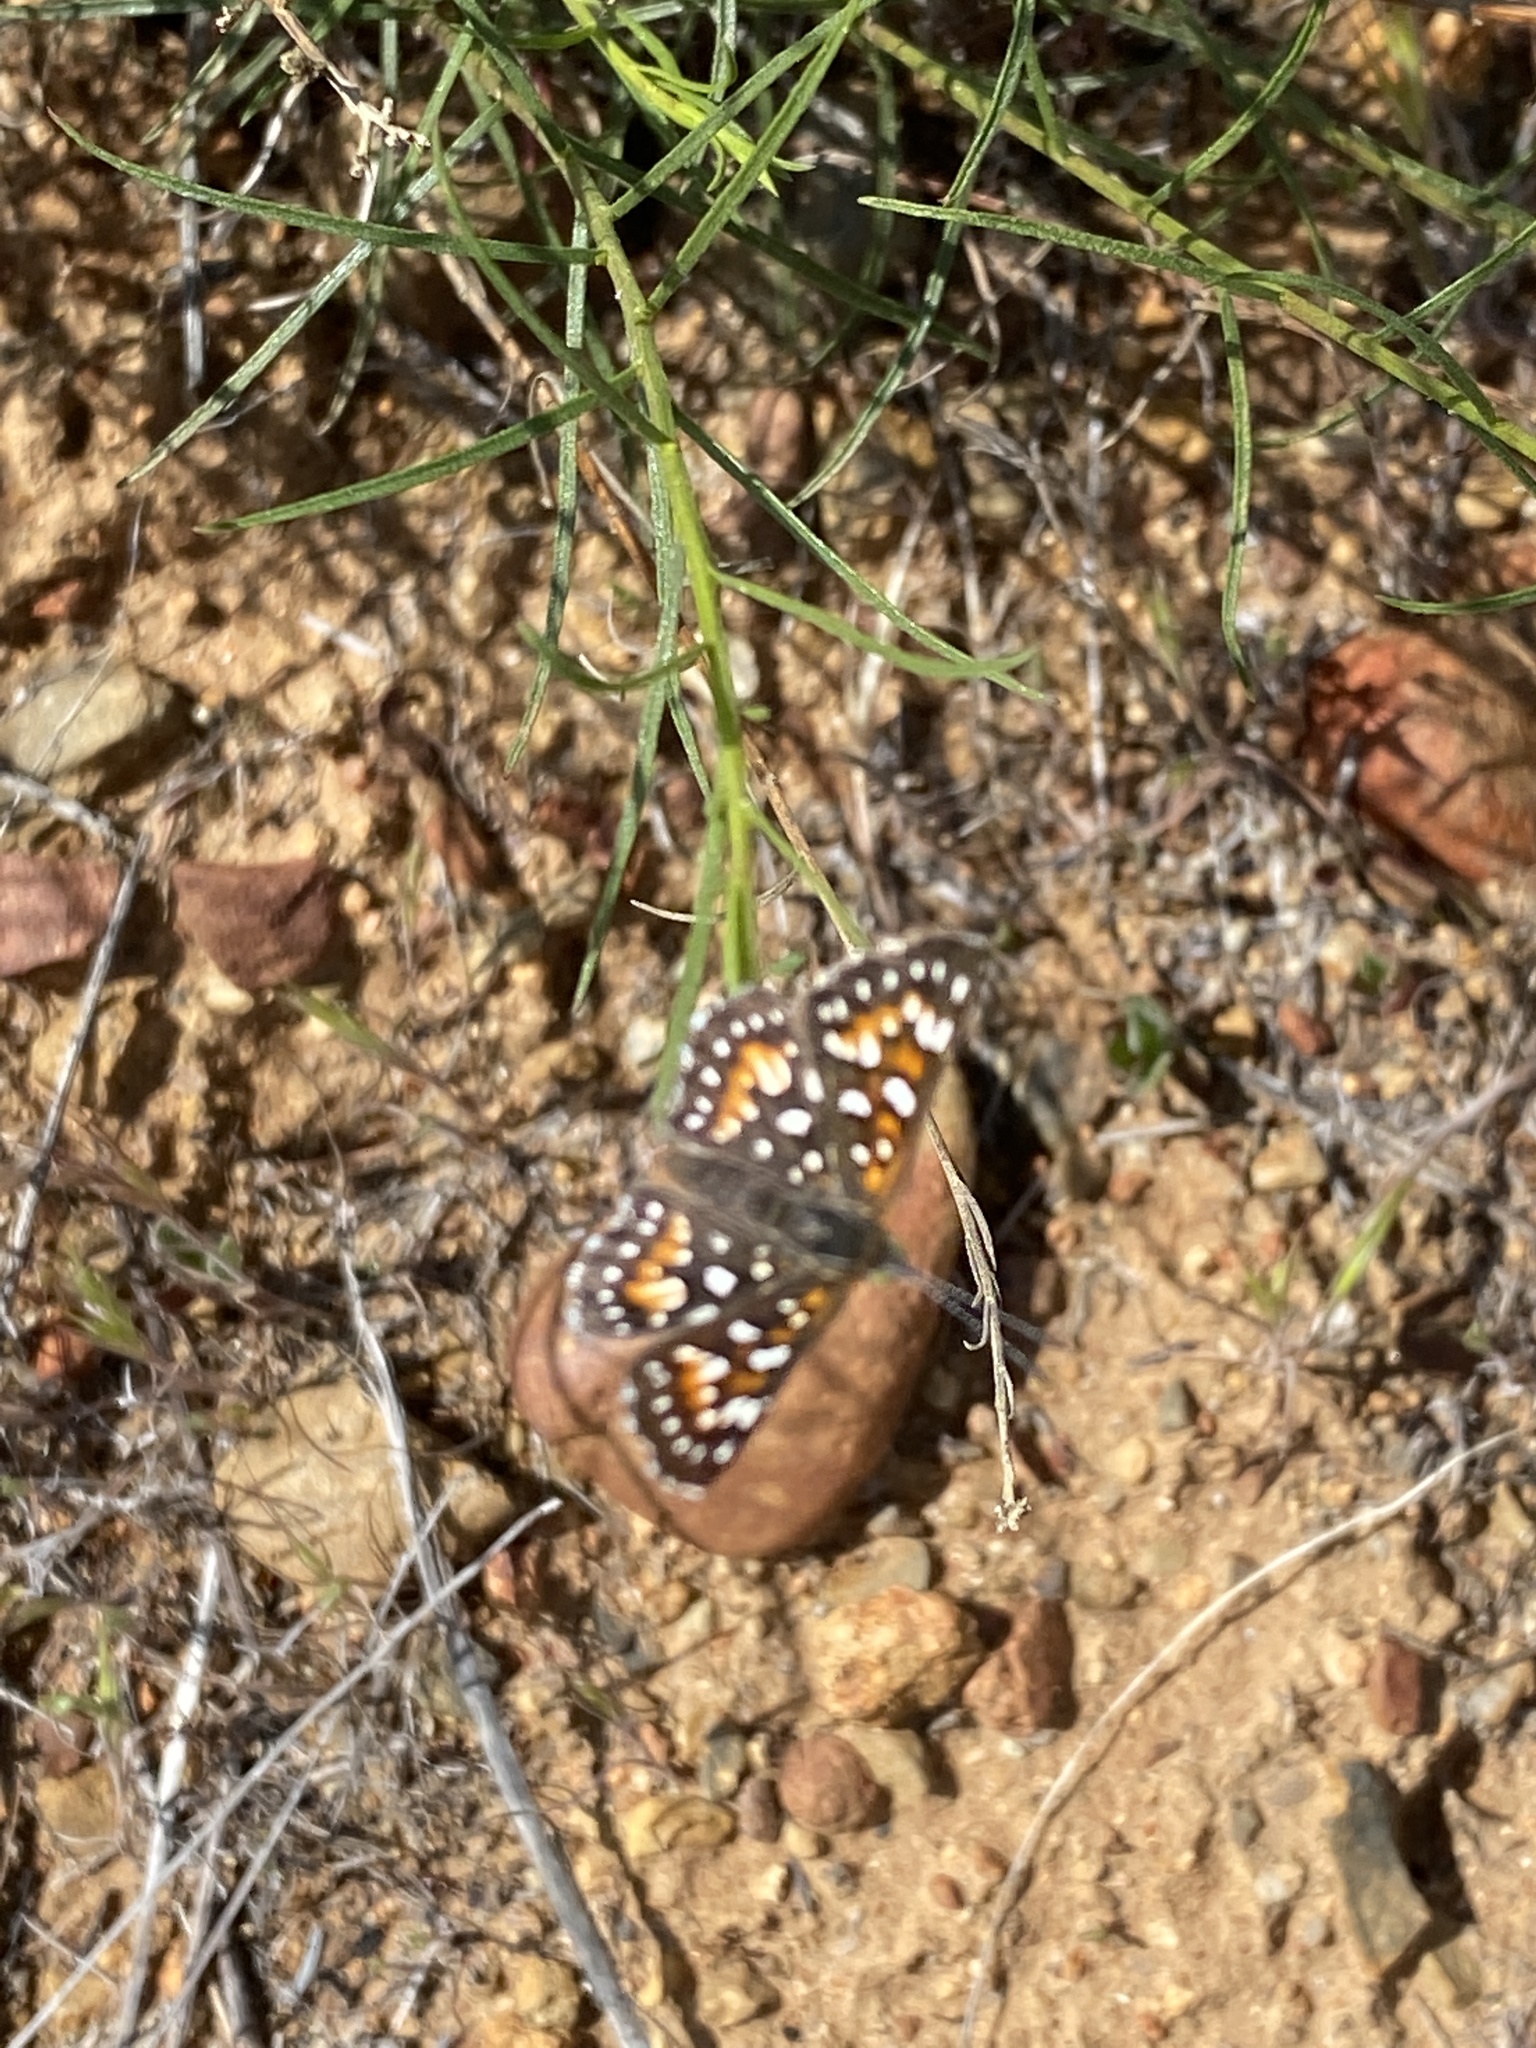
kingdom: Animalia
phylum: Arthropoda
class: Insecta
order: Lepidoptera
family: Riodinidae
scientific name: Riodinidae
